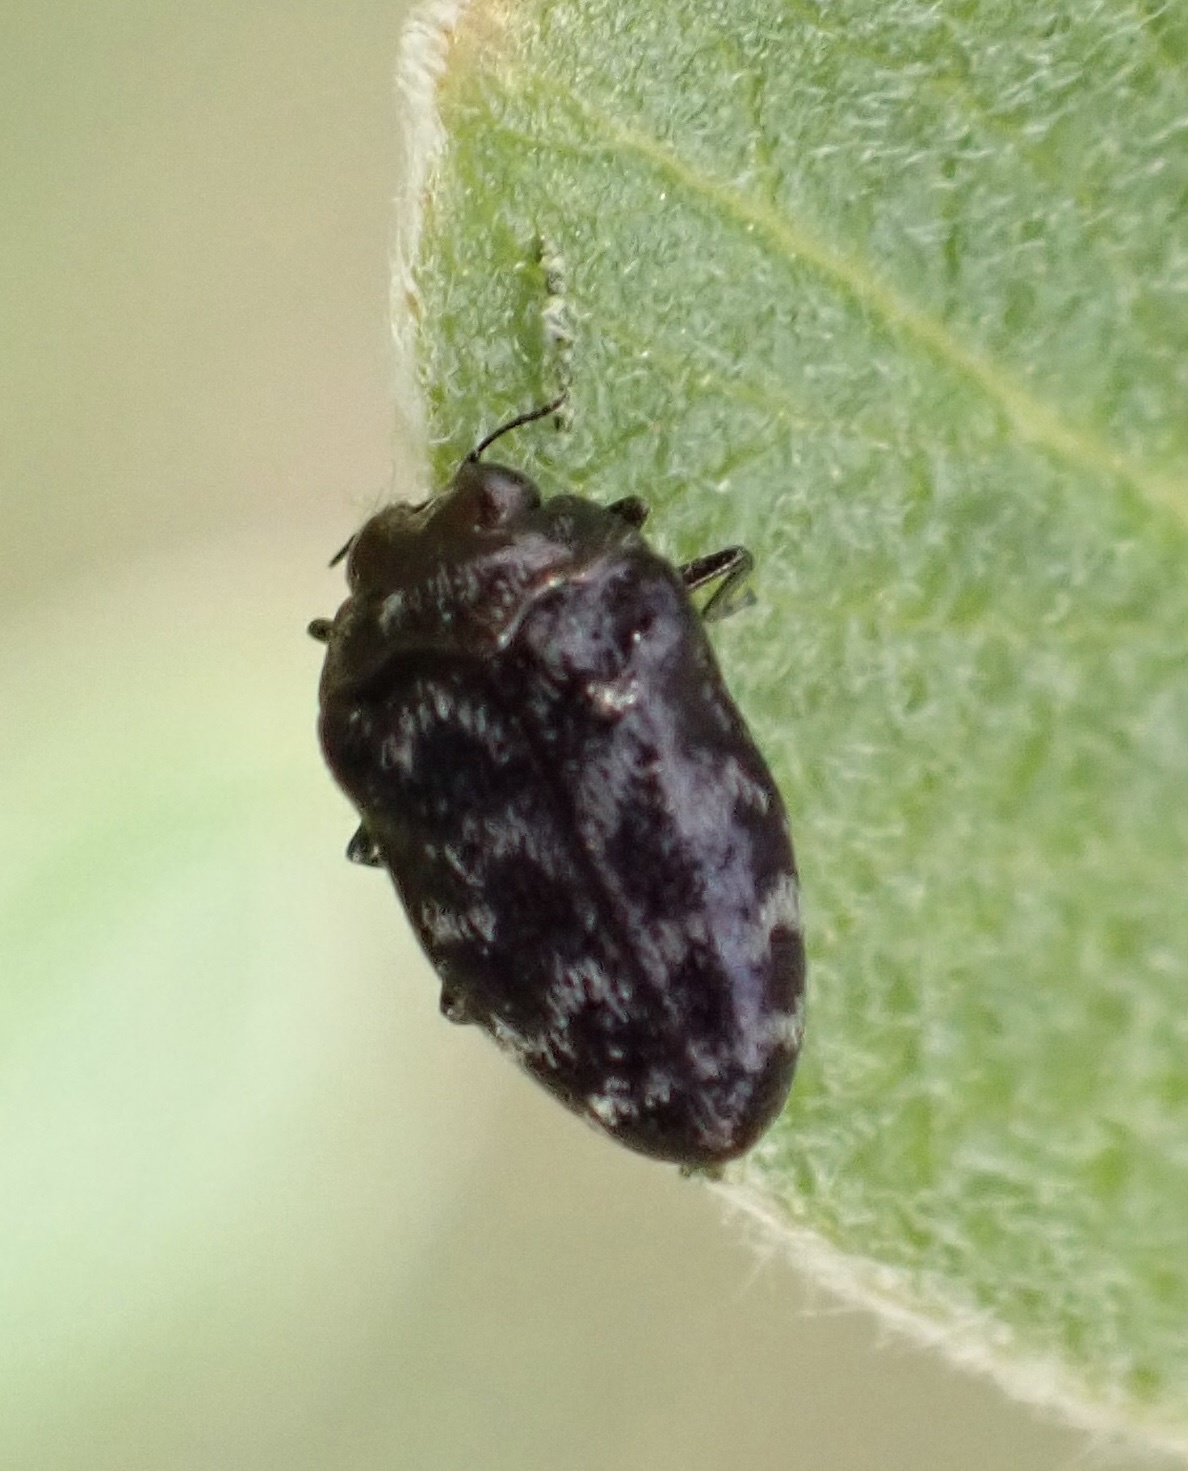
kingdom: Animalia
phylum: Arthropoda
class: Insecta
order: Coleoptera
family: Buprestidae
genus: Trachys
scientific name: Trachys minutus
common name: Metallic wood-boring beetle
